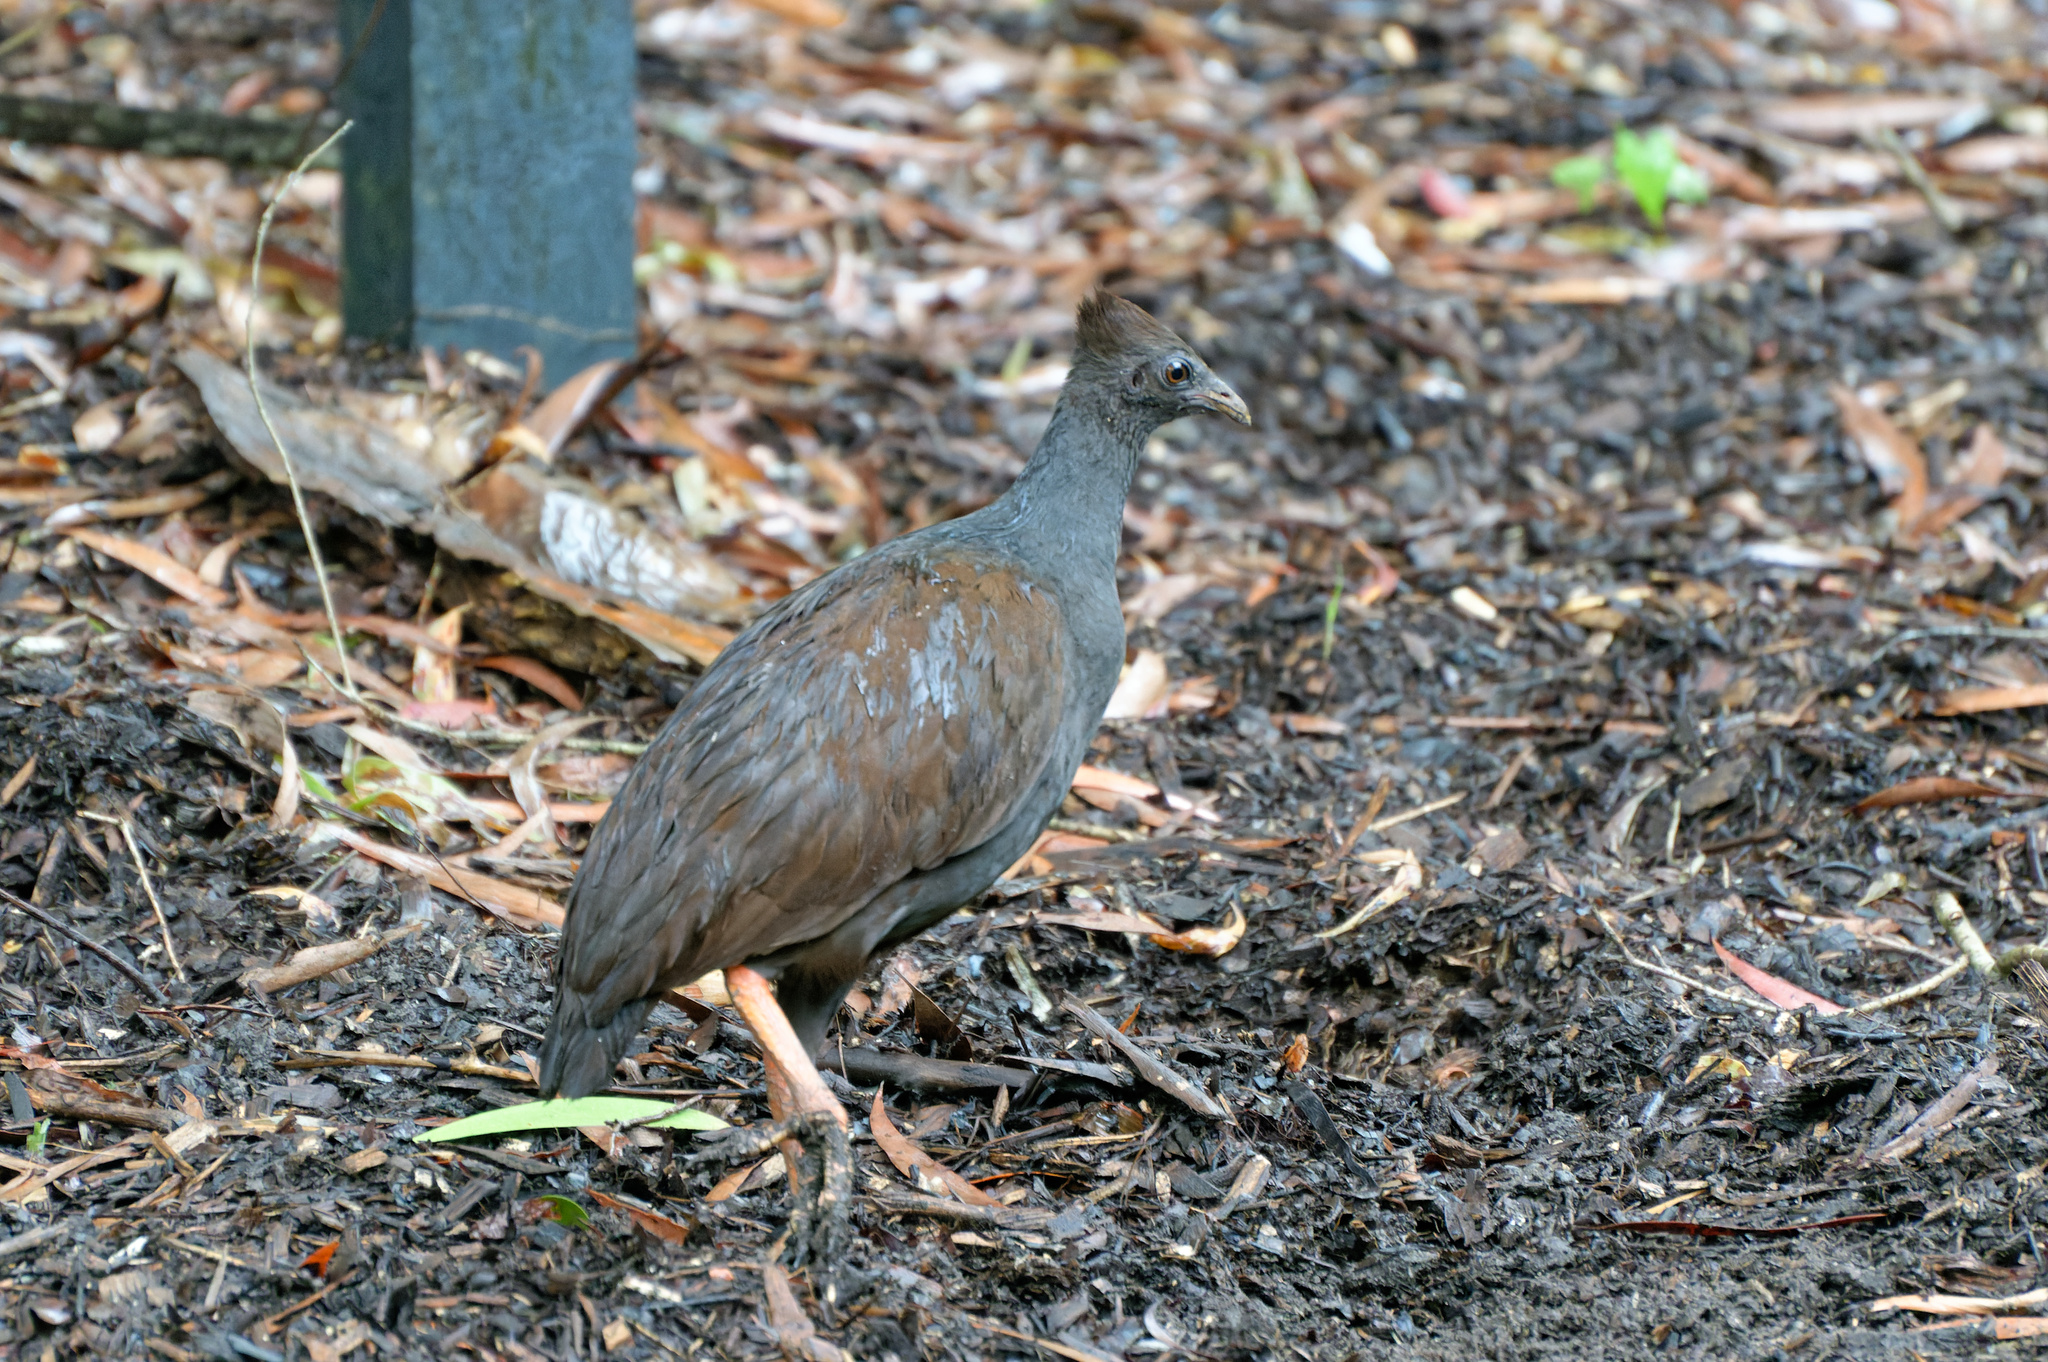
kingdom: Animalia
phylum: Chordata
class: Aves
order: Galliformes
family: Megapodiidae
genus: Megapodius
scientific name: Megapodius reinwardt
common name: Orange-footed scrubfowl
